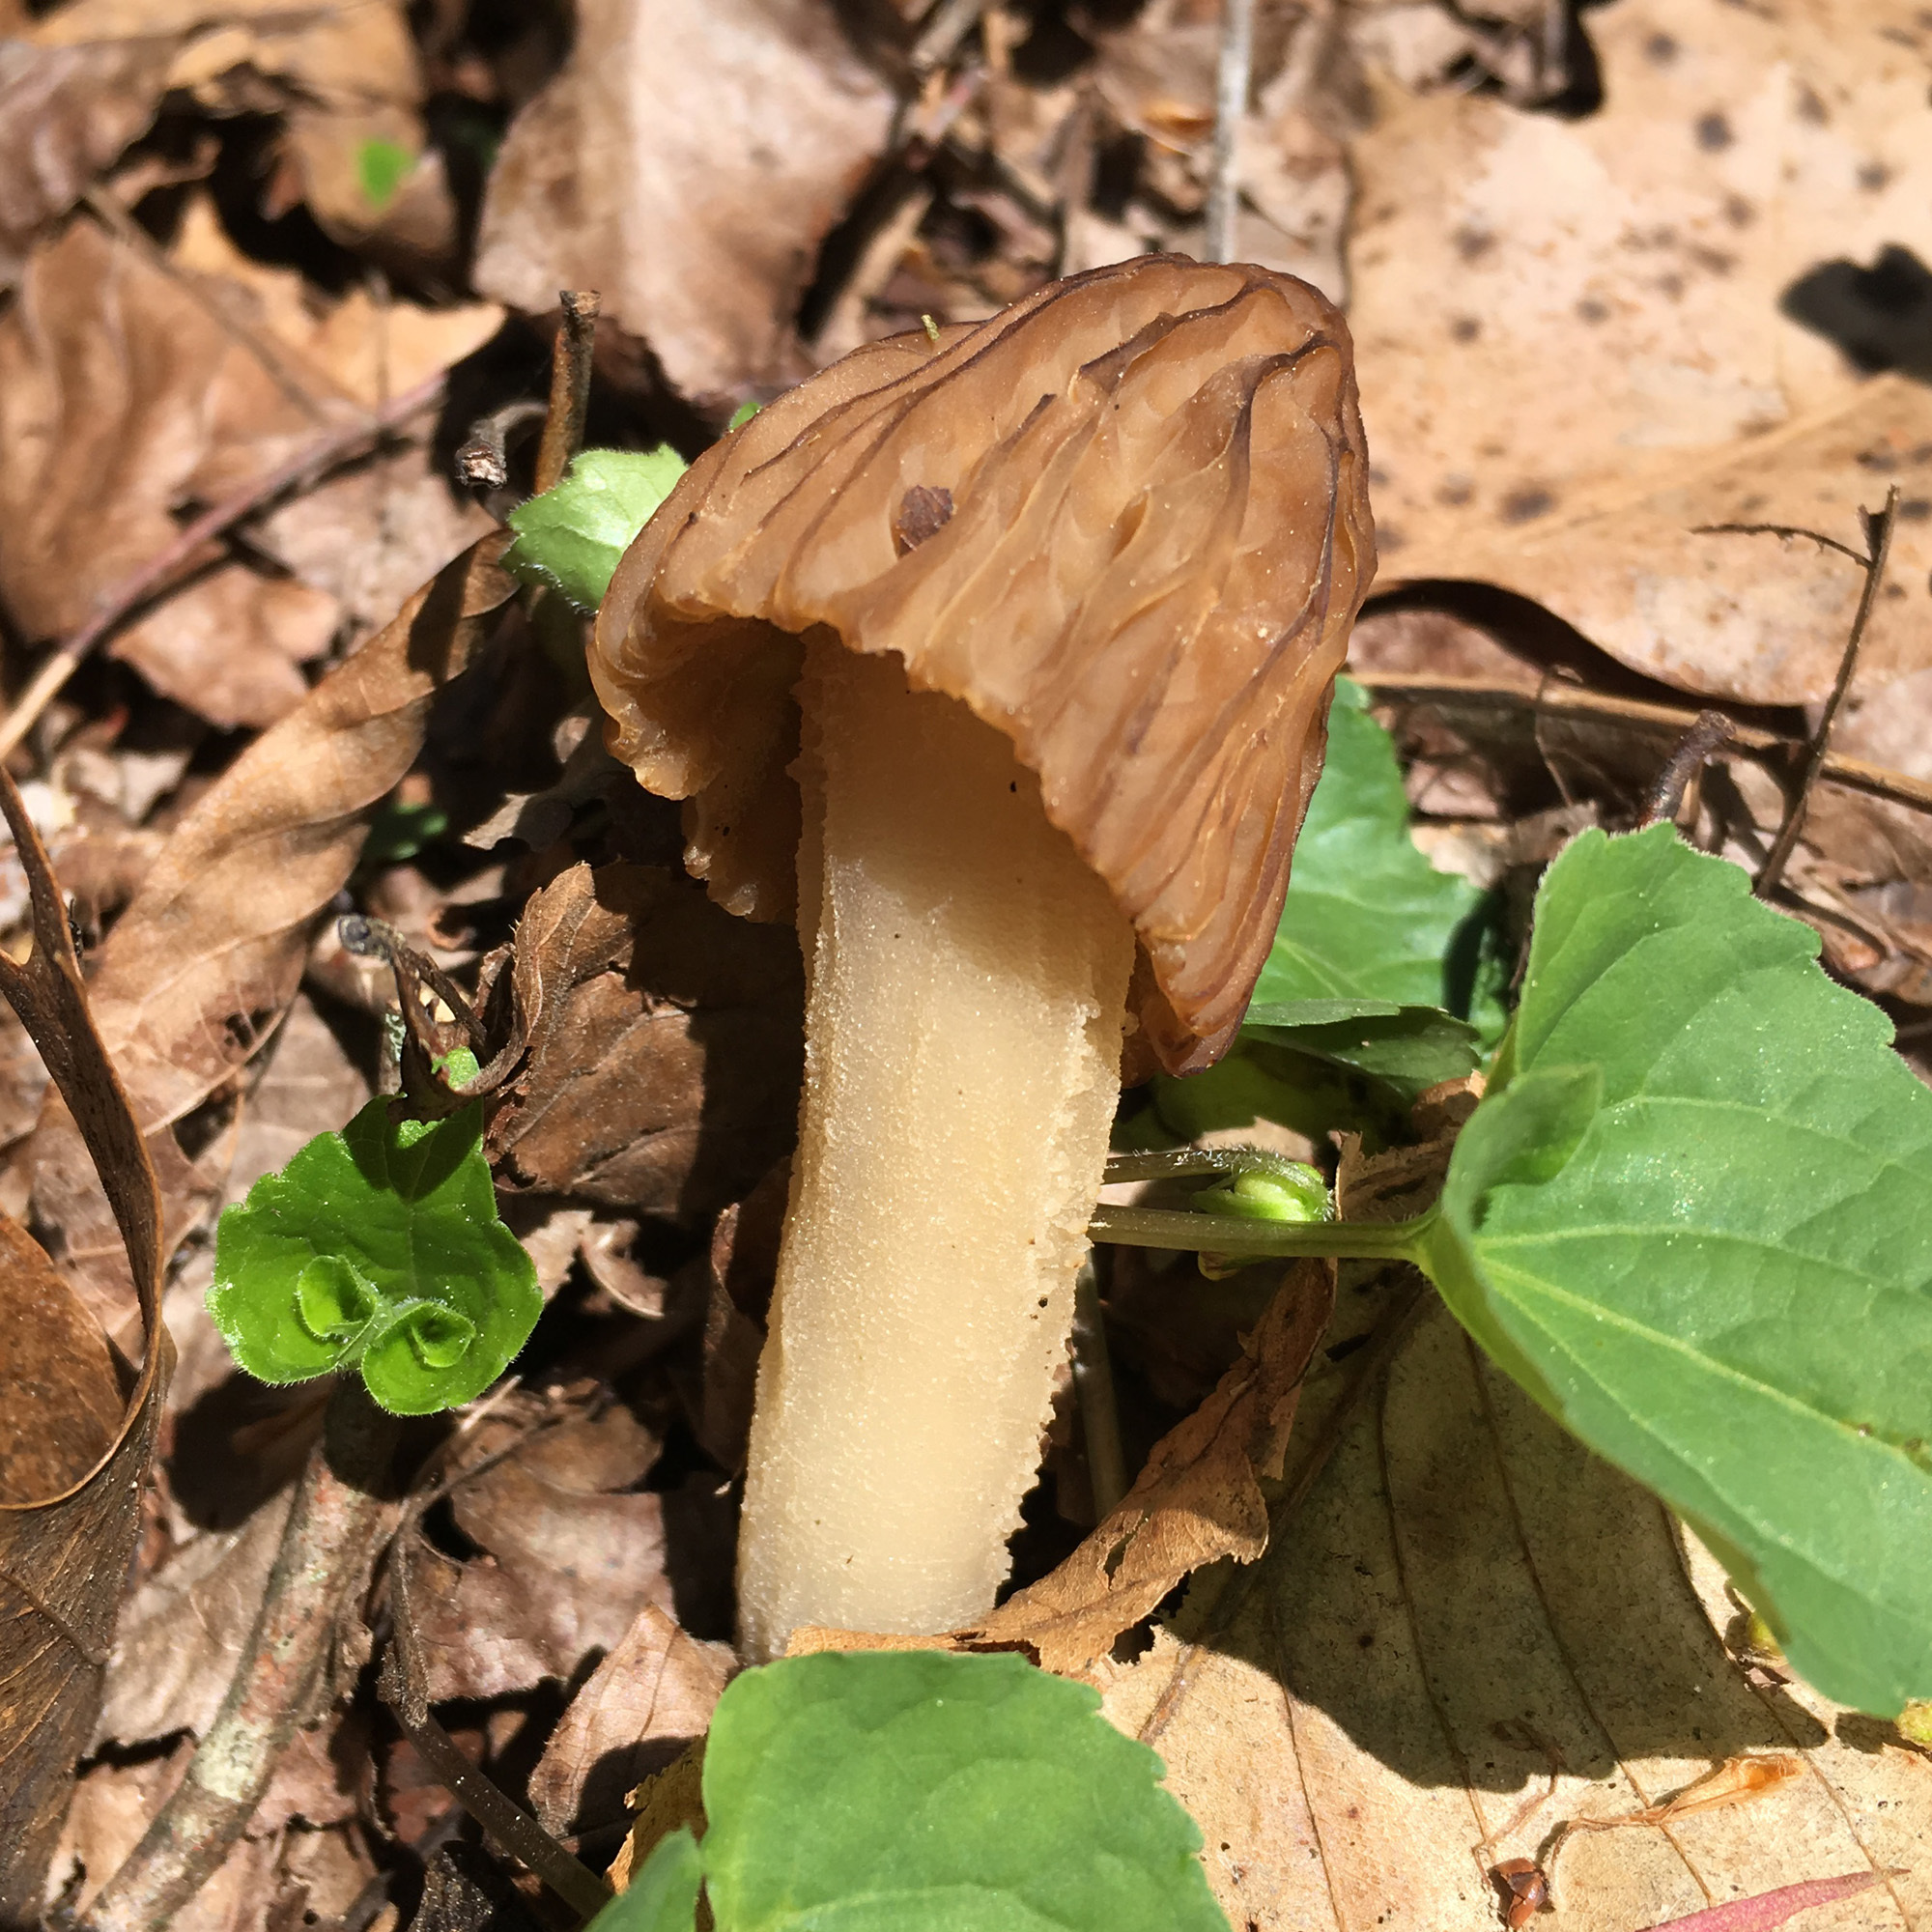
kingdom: Fungi
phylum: Ascomycota
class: Pezizomycetes
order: Pezizales
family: Morchellaceae
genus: Morchella
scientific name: Morchella punctipes
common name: Half-free morel
